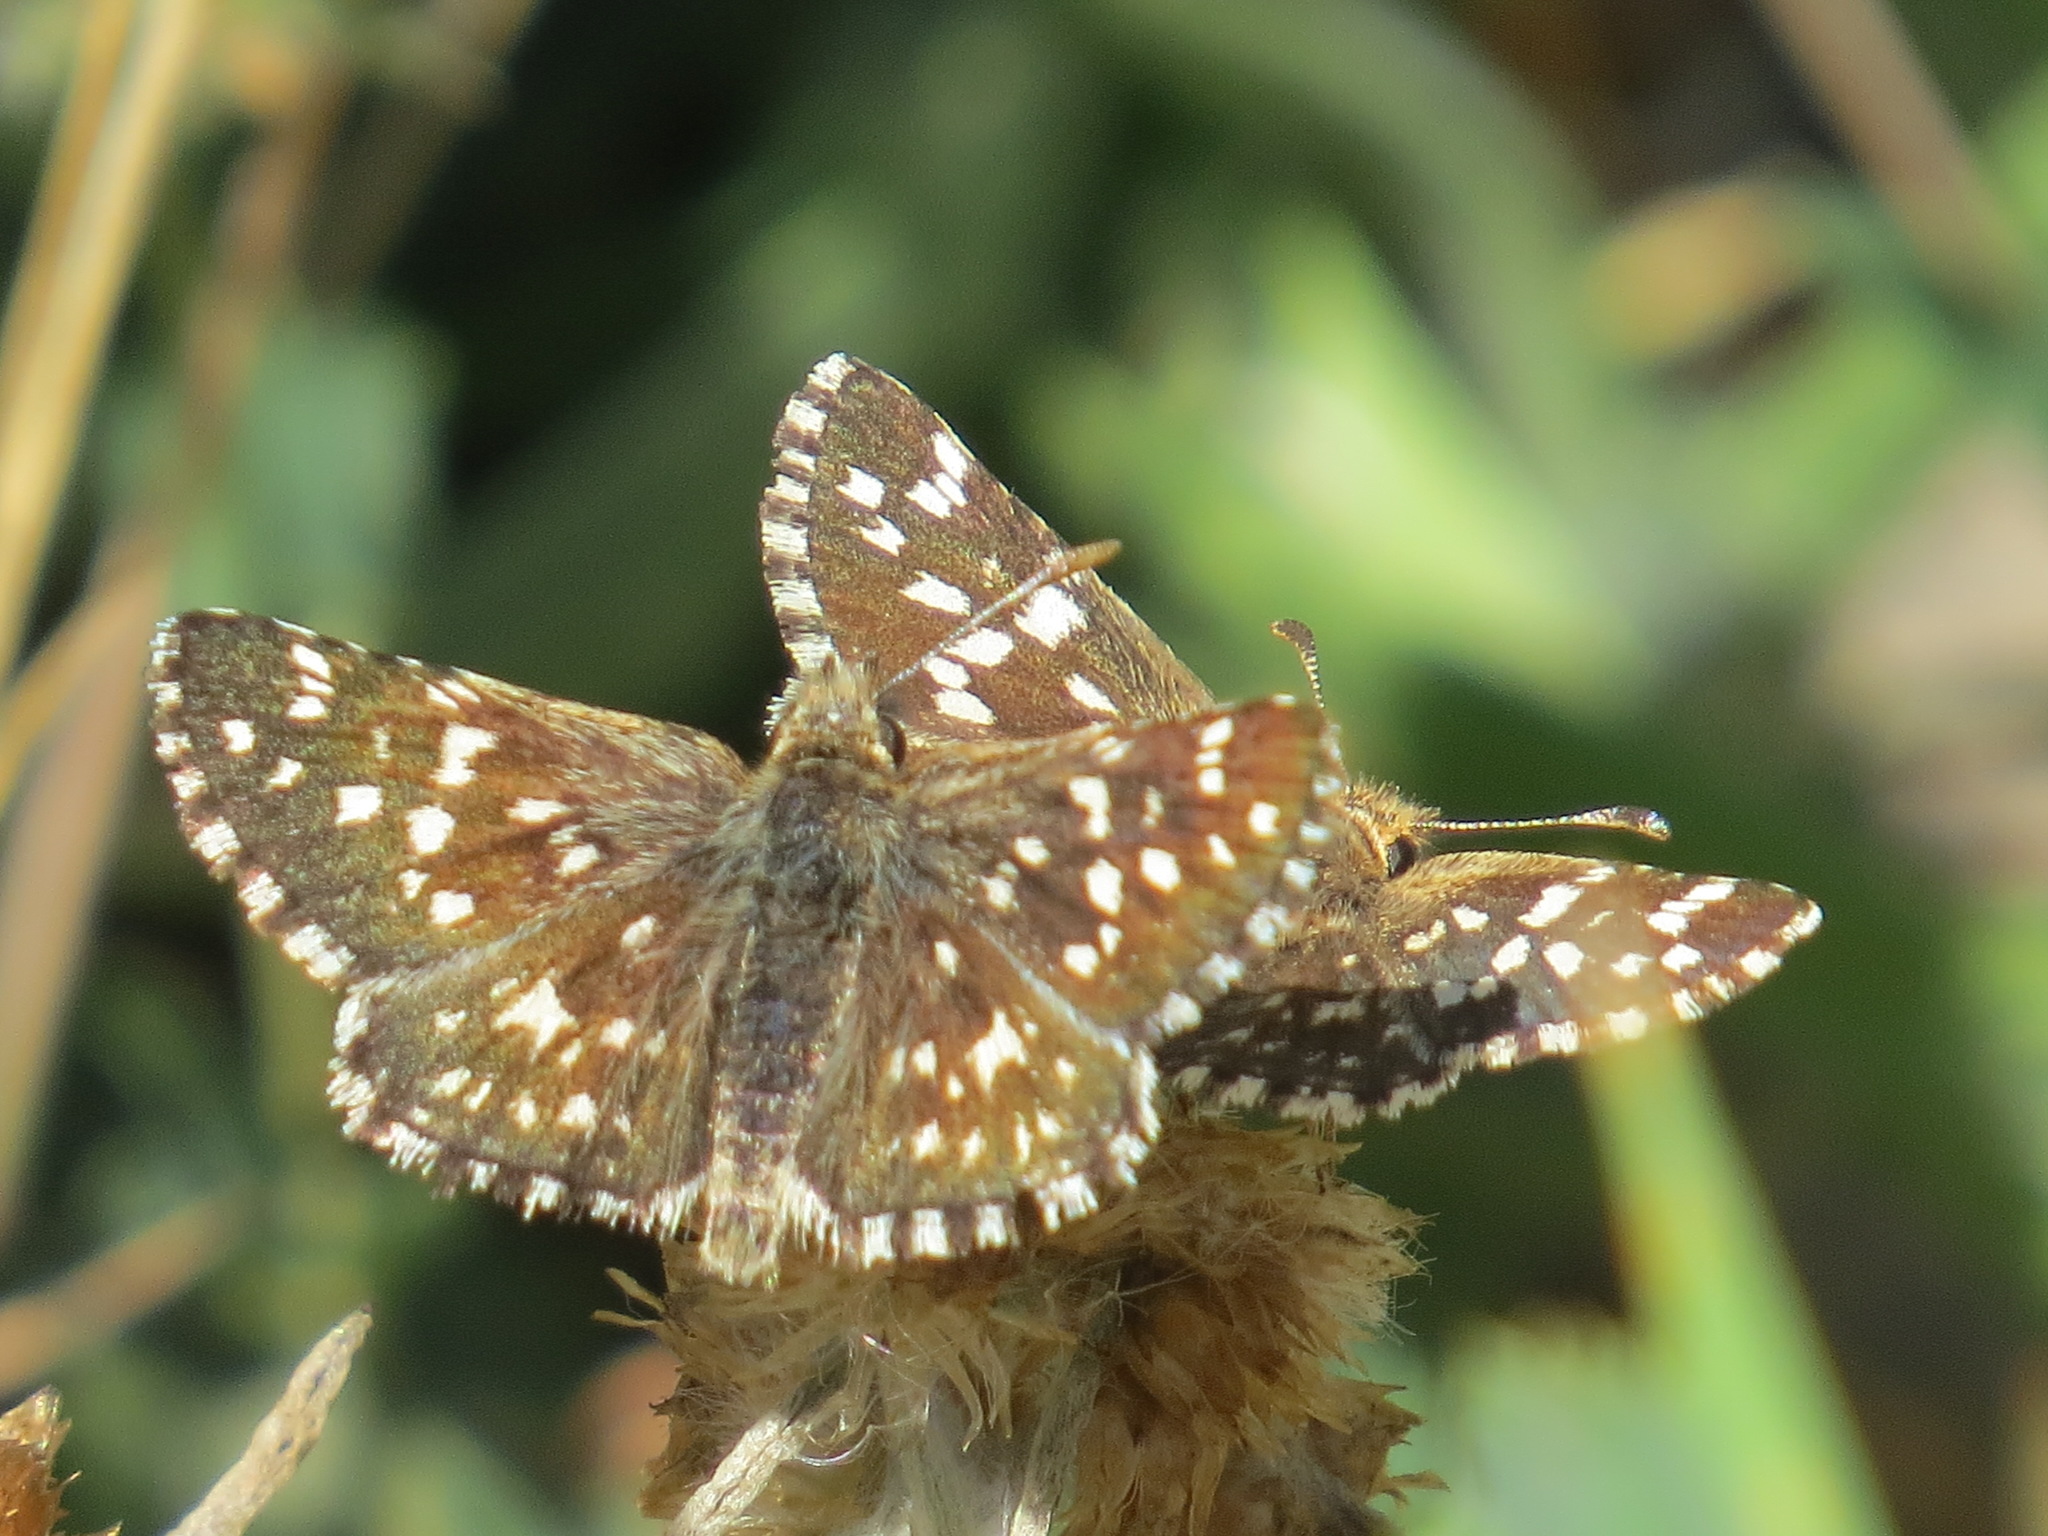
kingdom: Animalia
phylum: Arthropoda
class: Insecta
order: Lepidoptera
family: Hesperiidae
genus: Pyrgus
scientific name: Pyrgus ruralis
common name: Two-banded checkered-skipper
